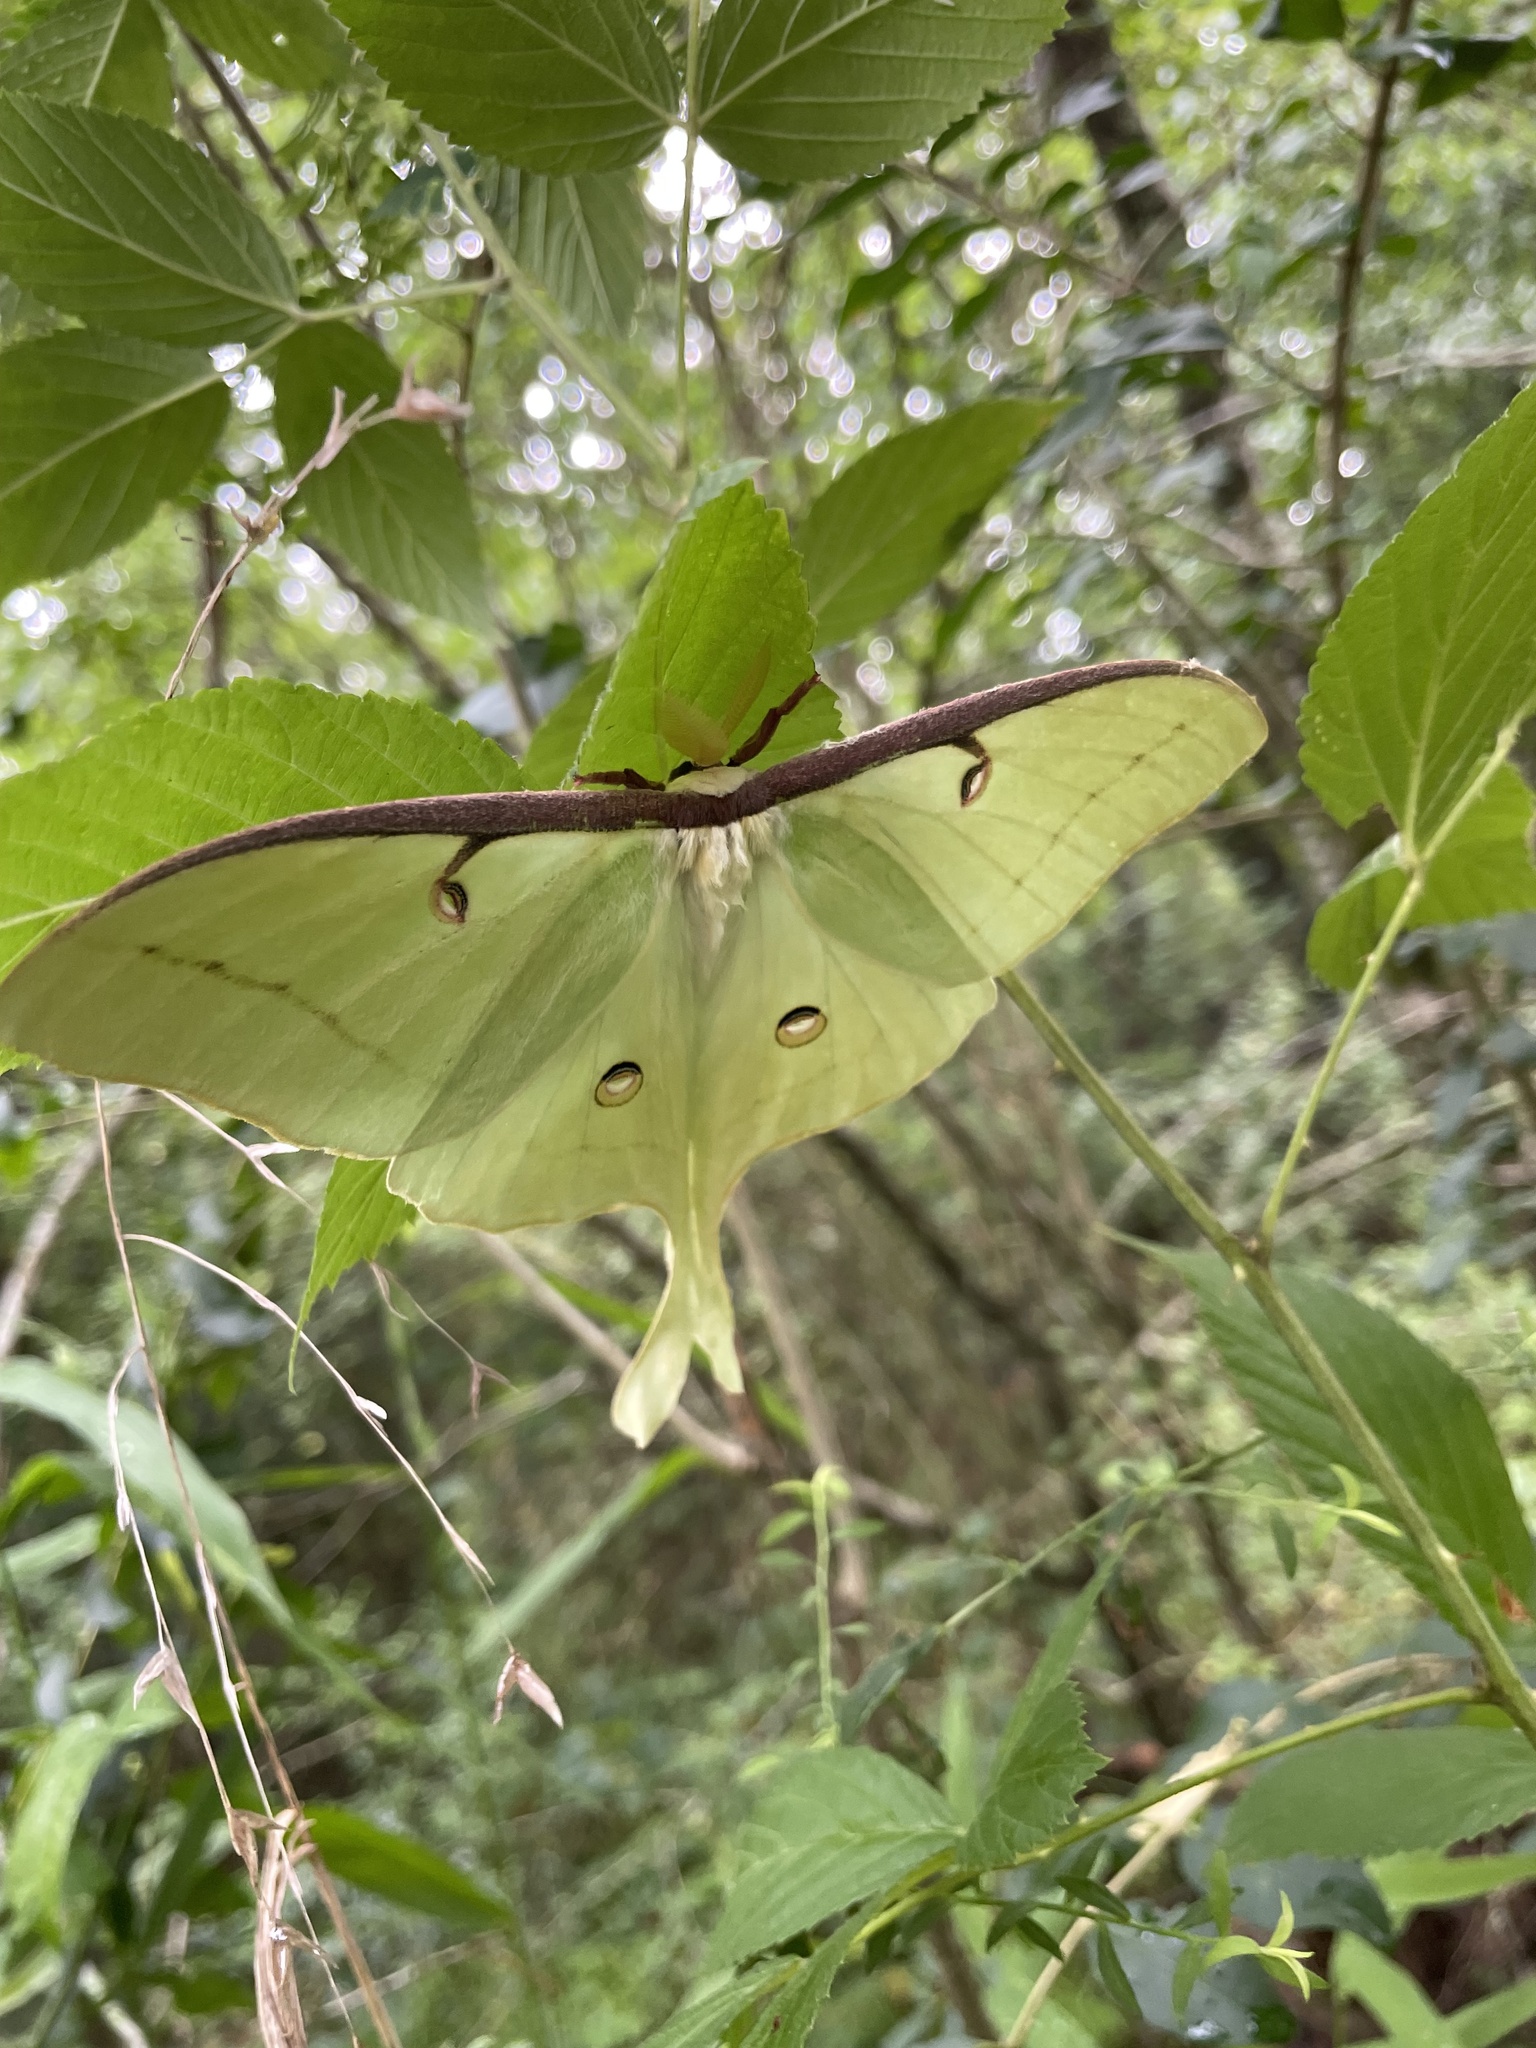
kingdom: Animalia
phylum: Arthropoda
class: Insecta
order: Lepidoptera
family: Saturniidae
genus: Actias
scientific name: Actias luna
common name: Luna moth
